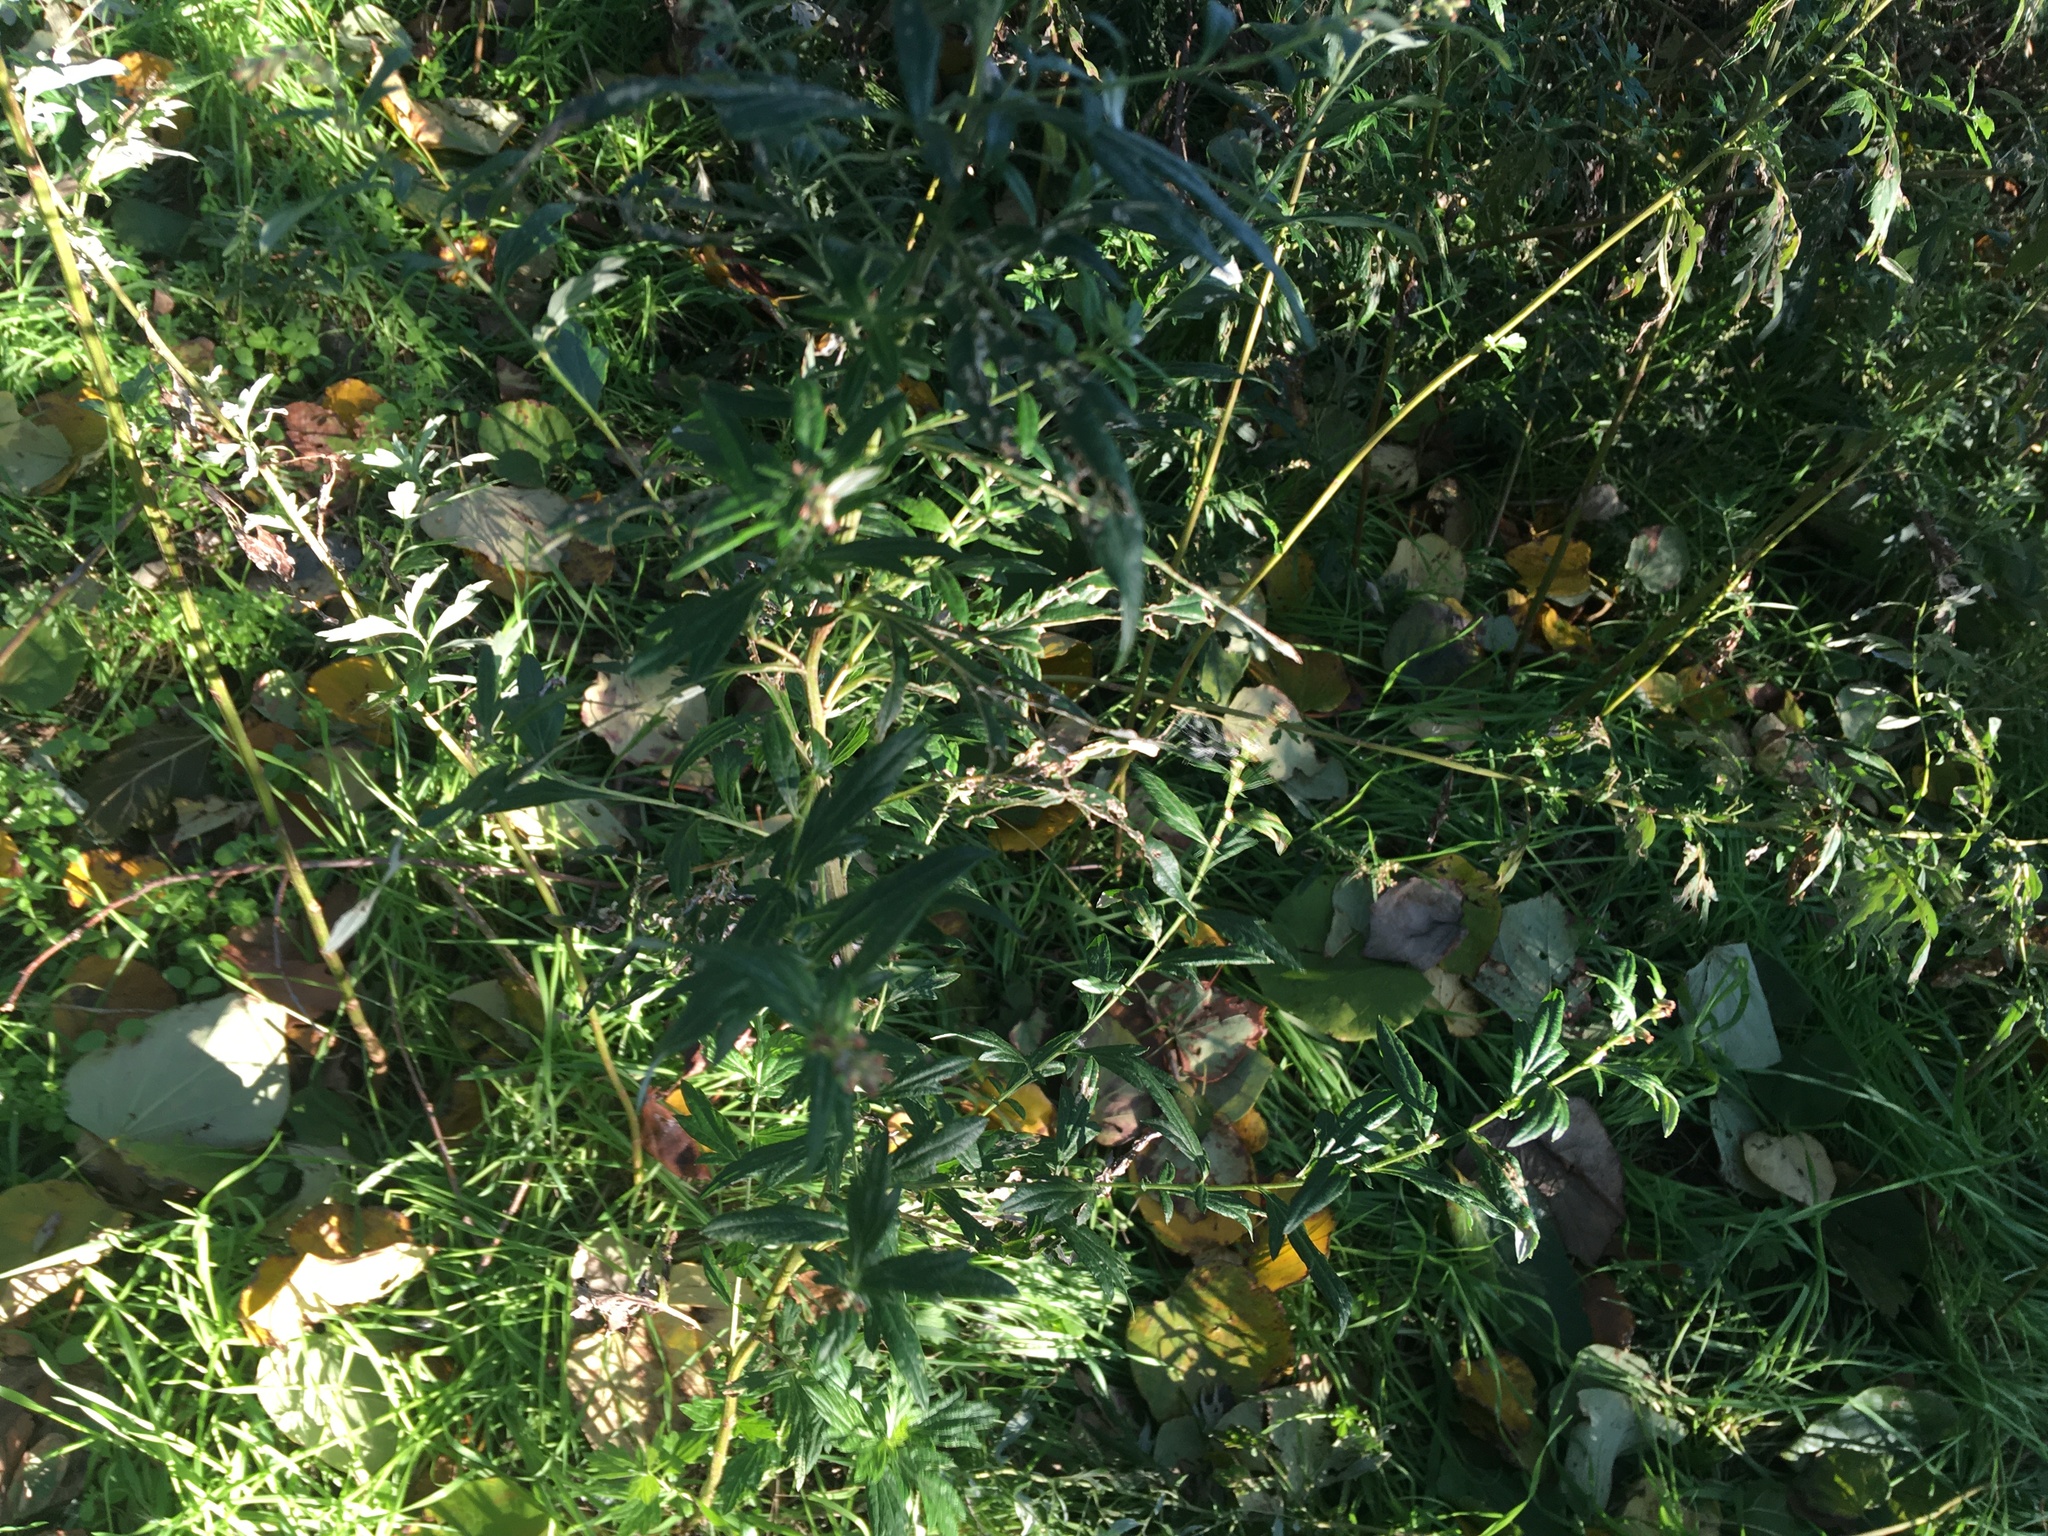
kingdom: Plantae
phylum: Tracheophyta
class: Magnoliopsida
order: Asterales
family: Asteraceae
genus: Artemisia
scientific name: Artemisia vulgaris
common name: Mugwort
